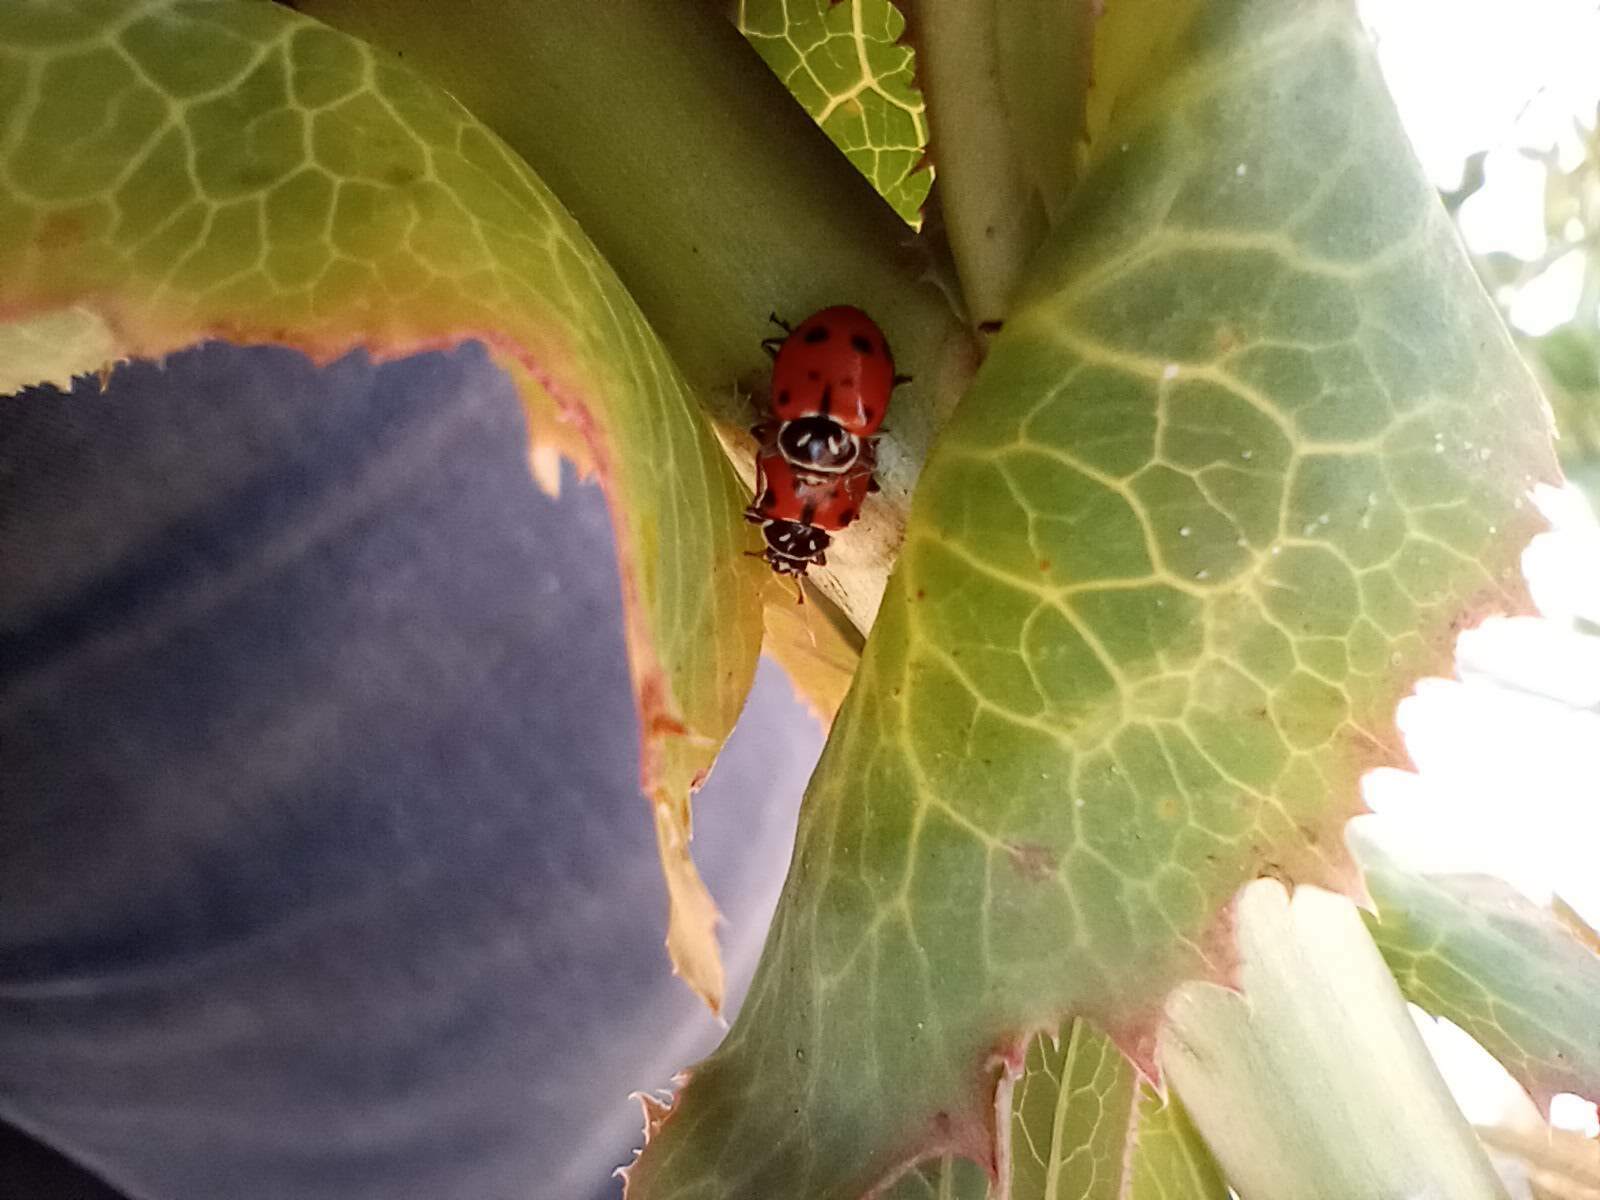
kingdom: Animalia
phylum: Arthropoda
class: Insecta
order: Coleoptera
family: Coccinellidae
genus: Hippodamia
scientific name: Hippodamia convergens
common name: Convergent lady beetle
